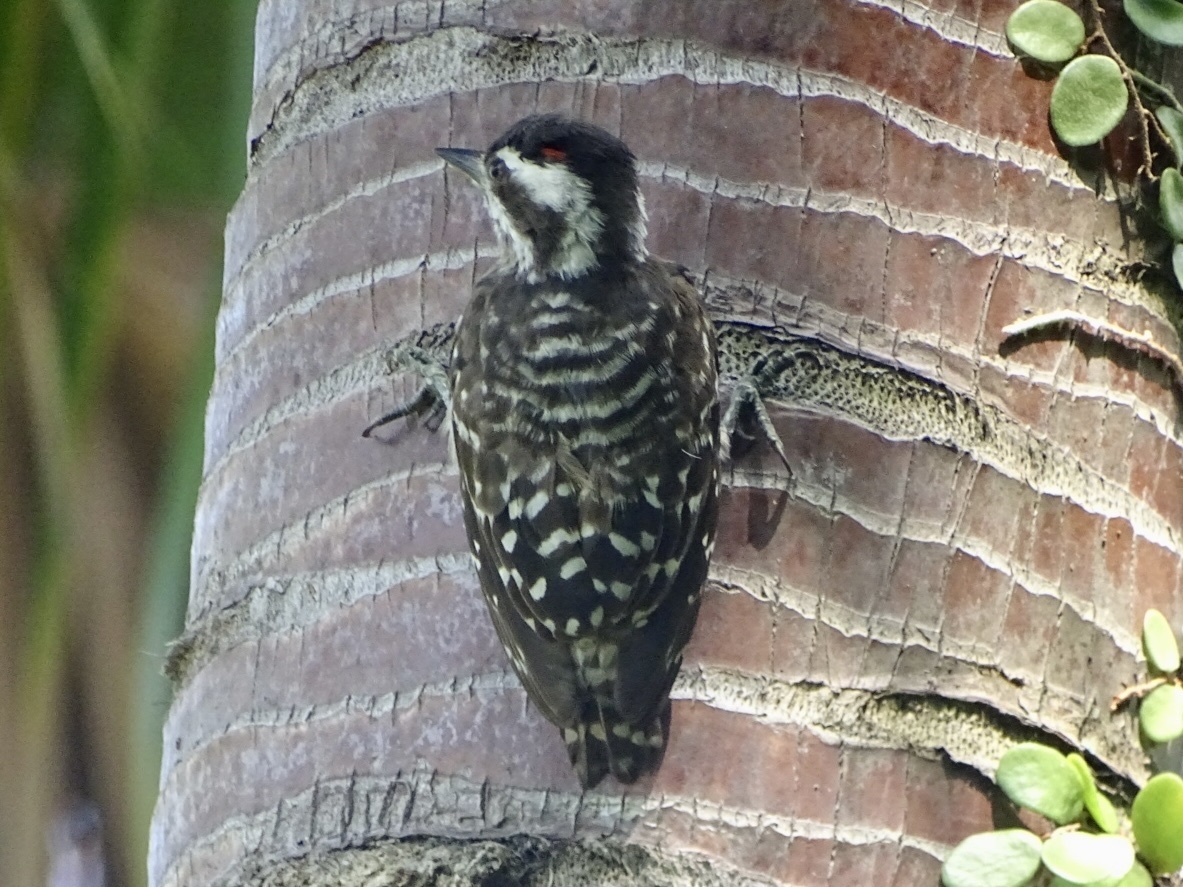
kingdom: Animalia
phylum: Chordata
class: Aves
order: Piciformes
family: Picidae
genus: Yungipicus
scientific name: Yungipicus moluccensis
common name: Sunda pygmy woodpecker
